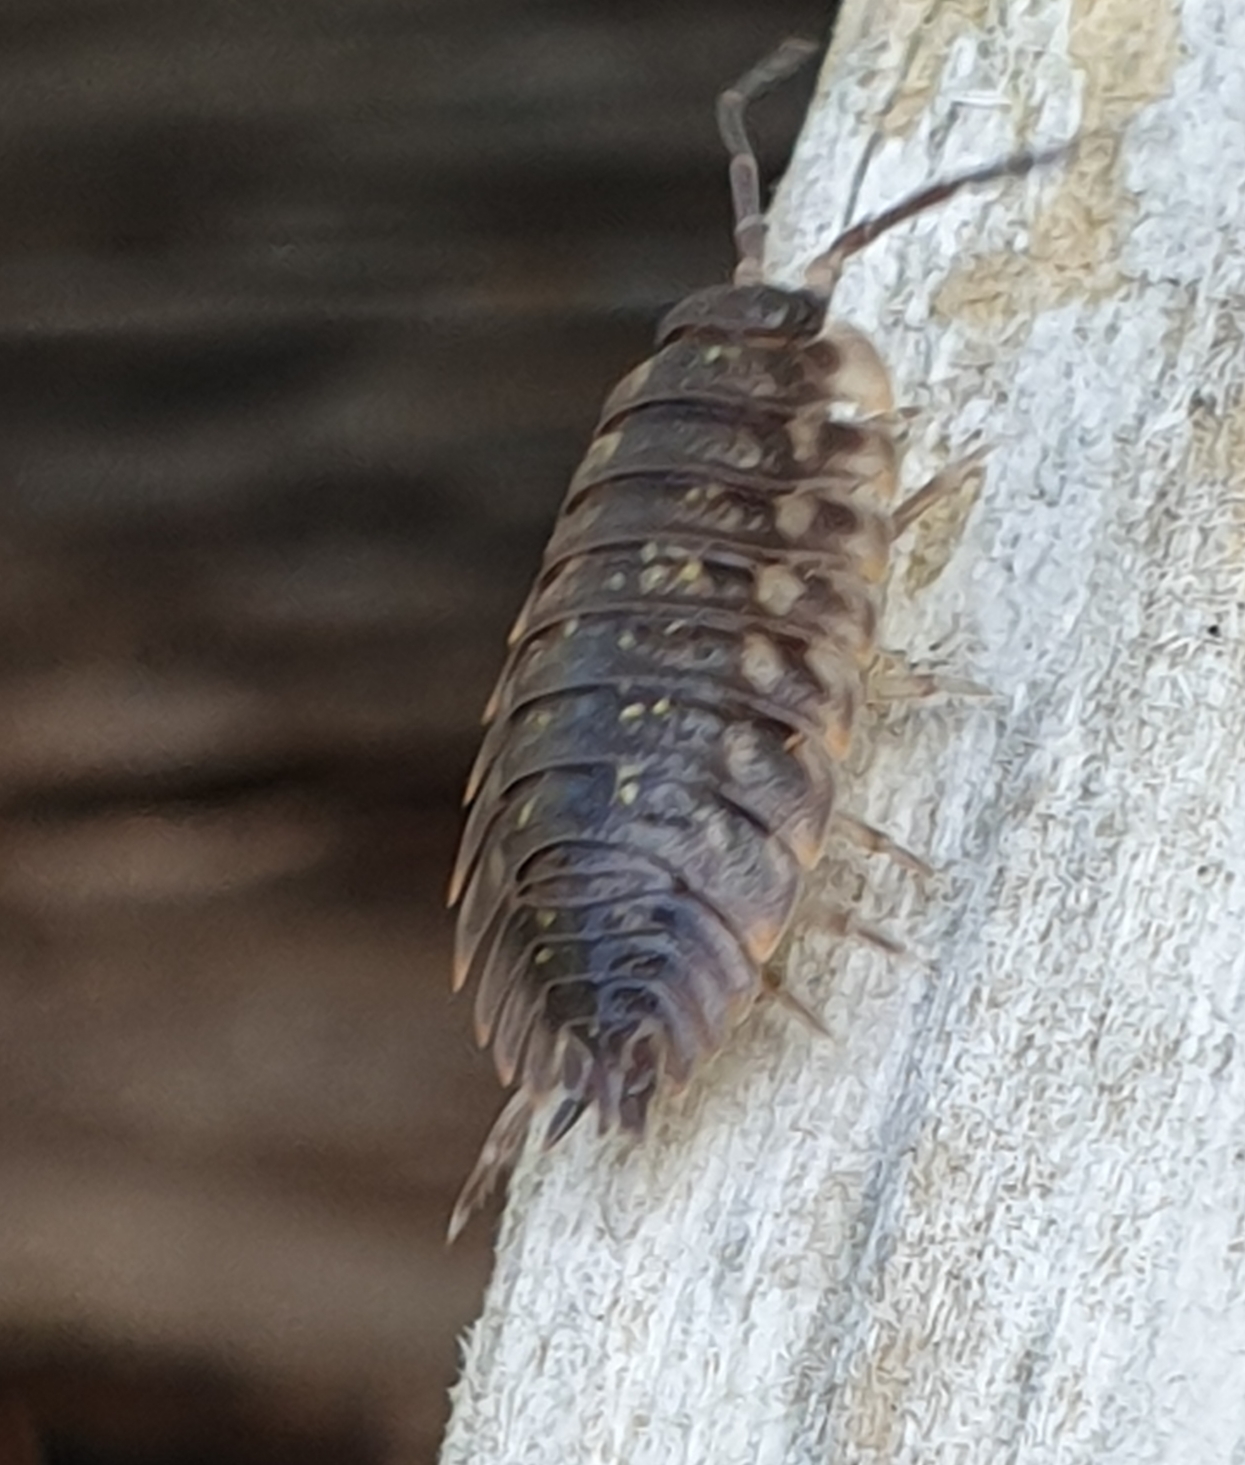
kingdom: Animalia
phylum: Arthropoda
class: Malacostraca
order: Isopoda
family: Oniscidae
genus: Oniscus
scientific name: Oniscus asellus
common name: Common shiny woodlouse
